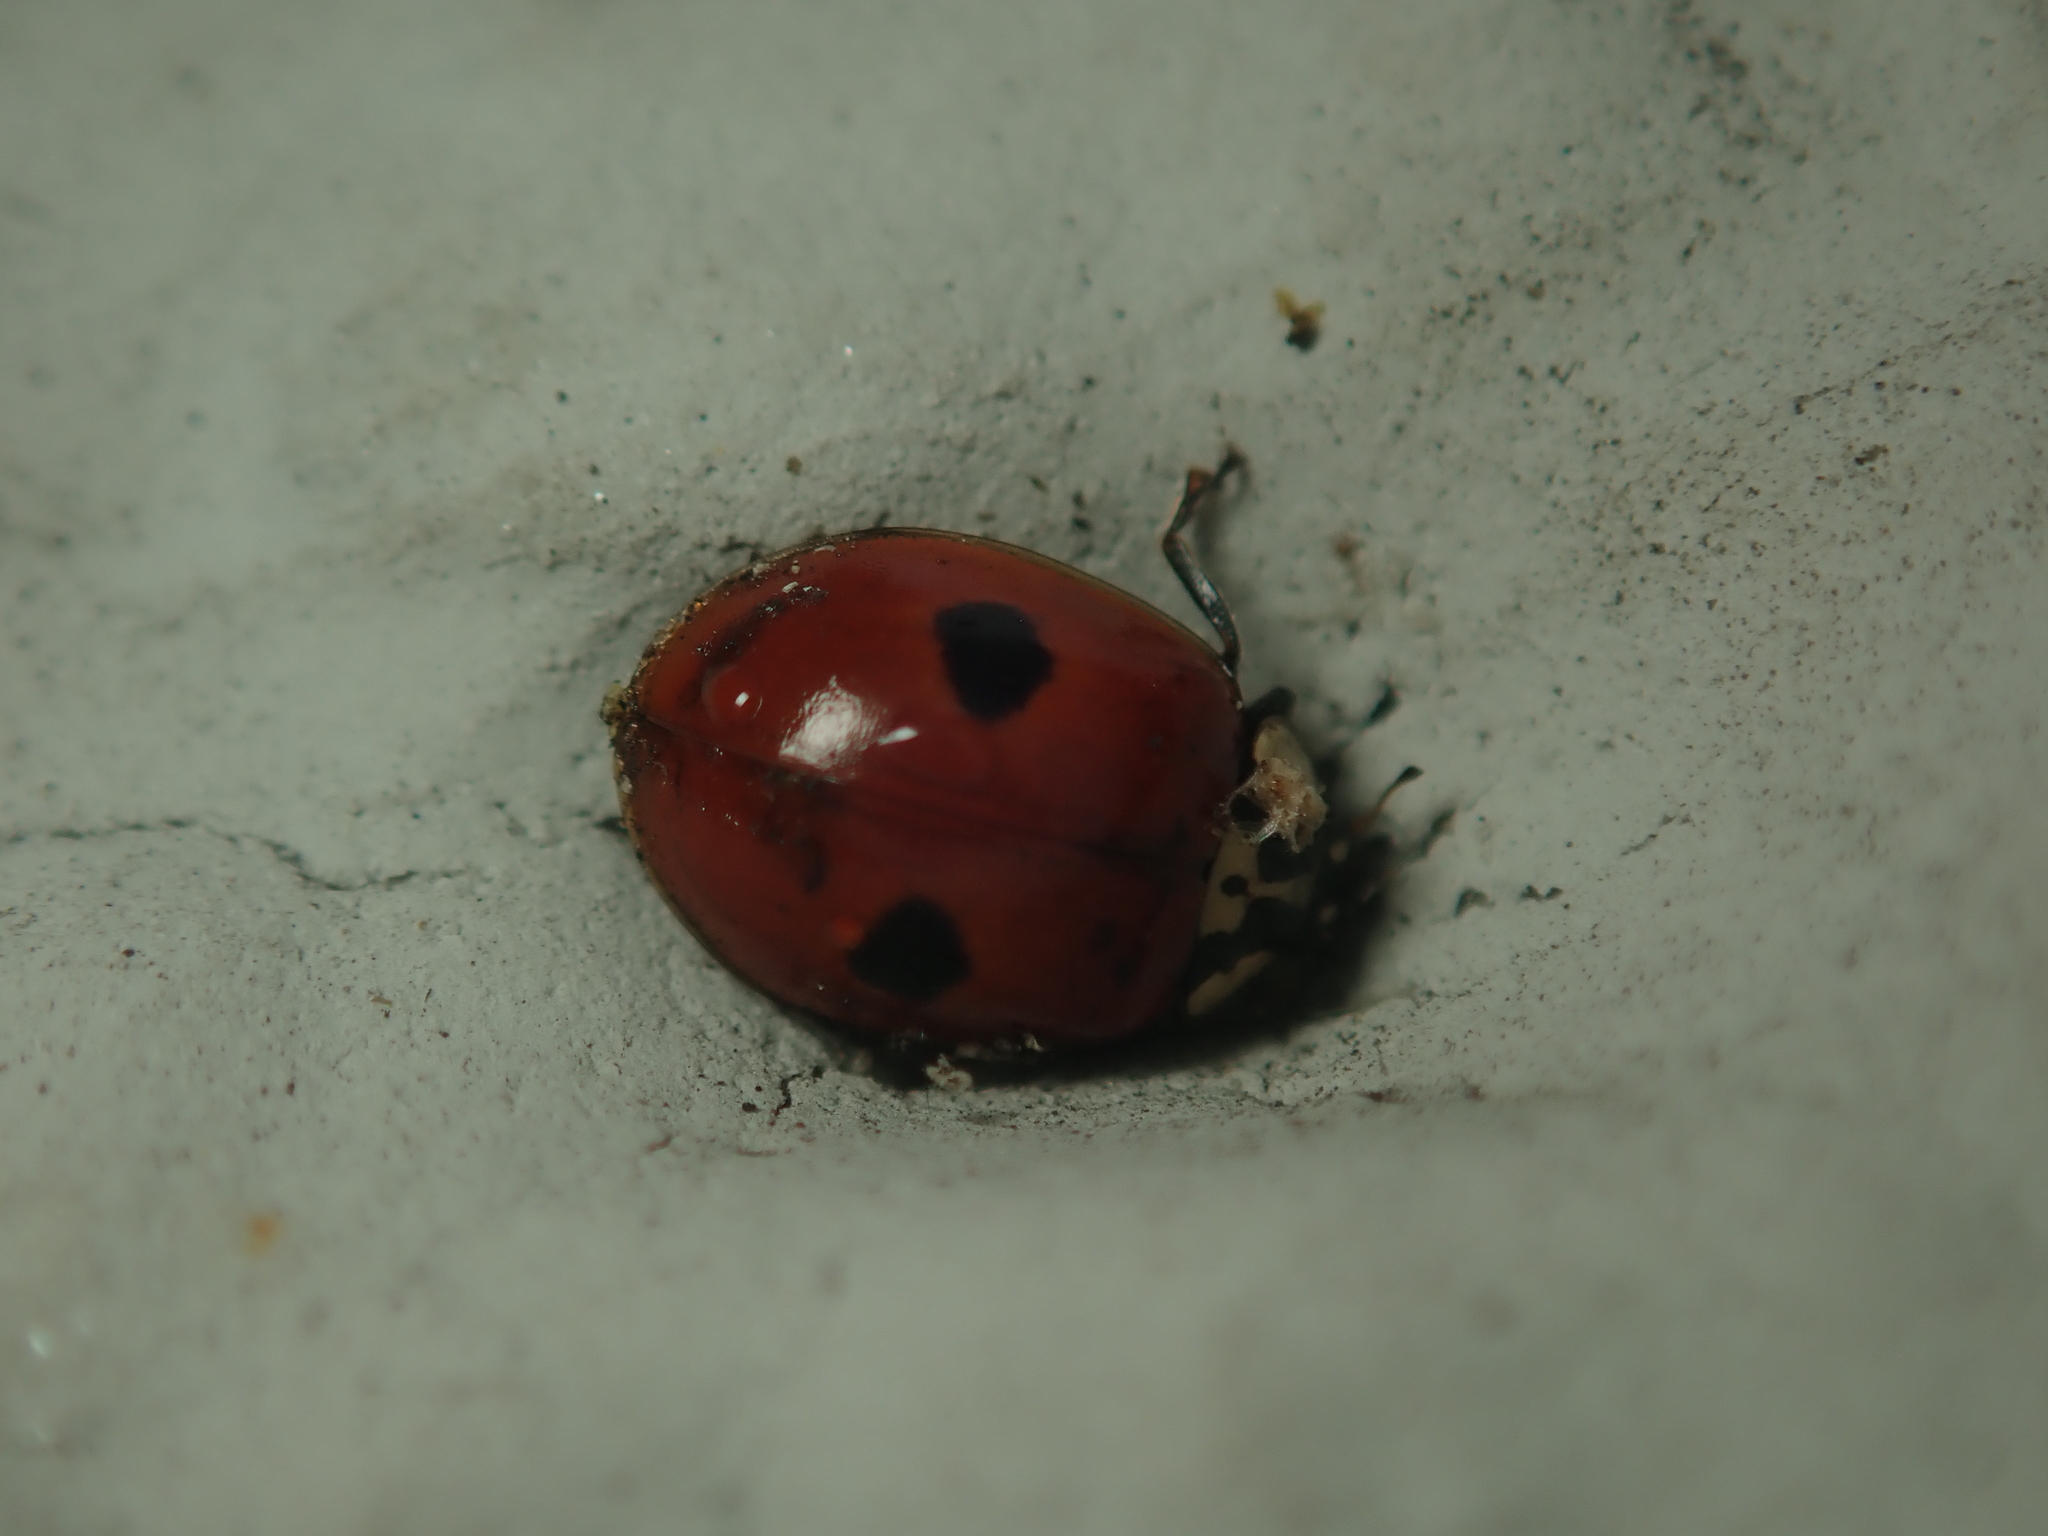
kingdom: Animalia
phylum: Arthropoda
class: Insecta
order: Coleoptera
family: Coccinellidae
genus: Adalia
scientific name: Adalia bipunctata
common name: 2-spot ladybird
